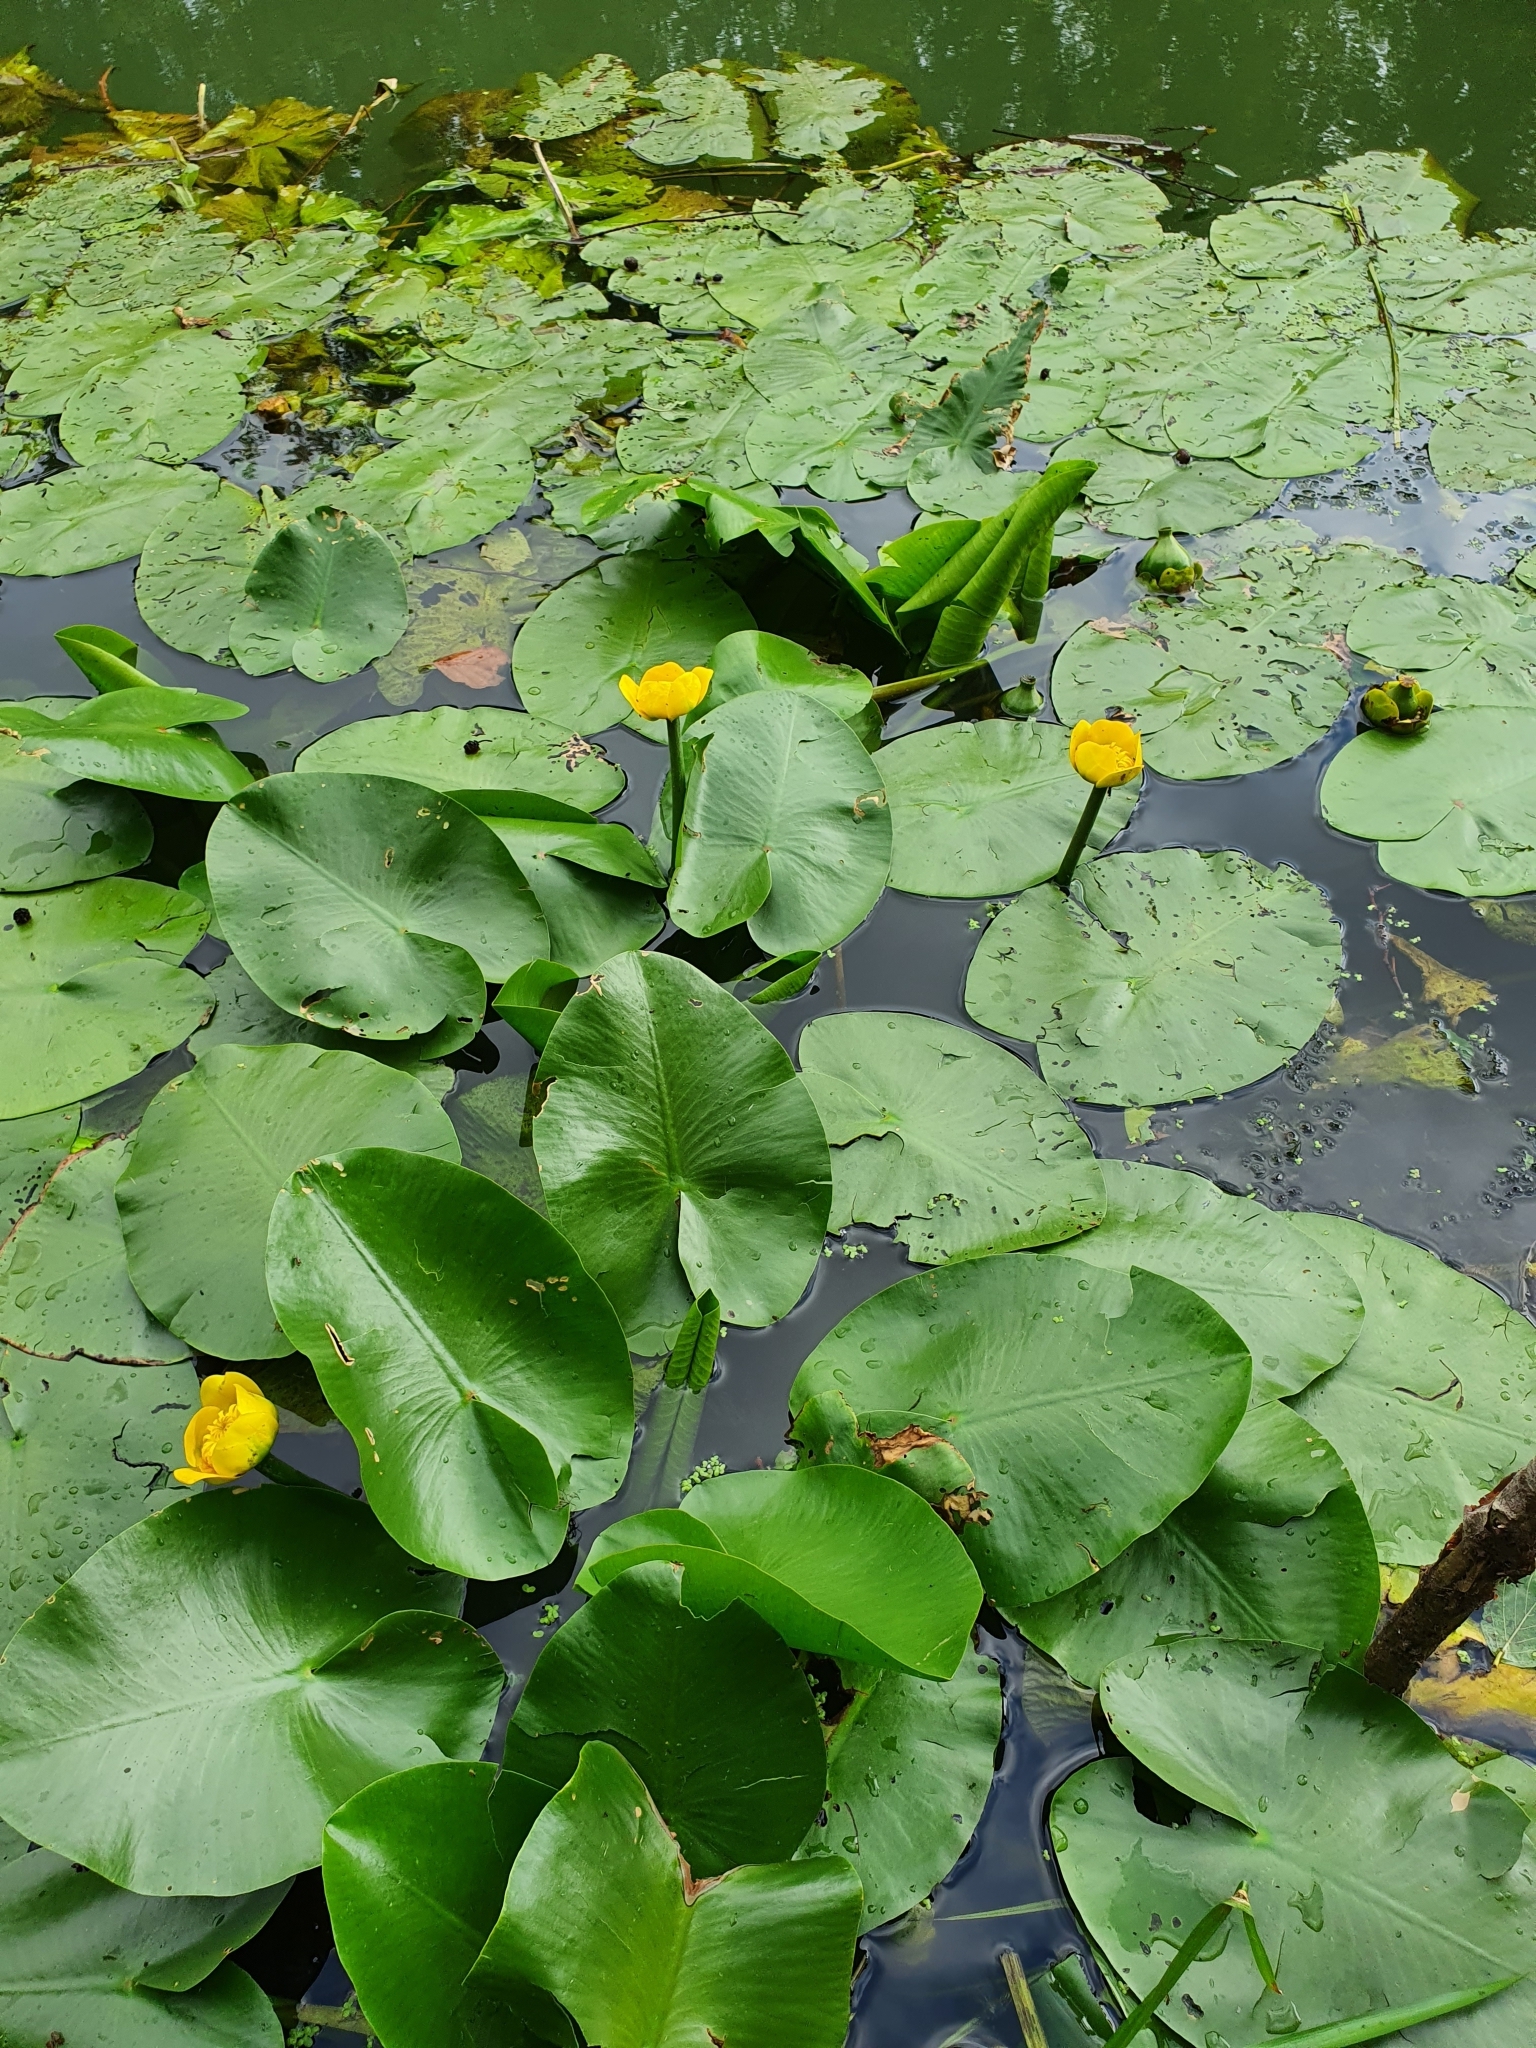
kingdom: Plantae
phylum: Tracheophyta
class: Magnoliopsida
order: Nymphaeales
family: Nymphaeaceae
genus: Nuphar
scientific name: Nuphar lutea
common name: Yellow water-lily
